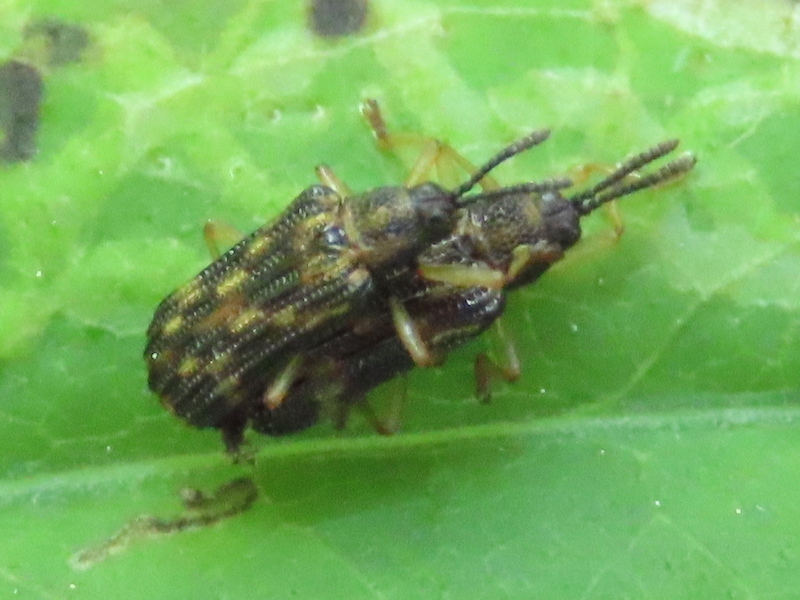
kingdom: Animalia
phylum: Arthropoda
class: Insecta
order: Coleoptera
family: Chrysomelidae
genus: Sumitrosis
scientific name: Sumitrosis inaequalis
